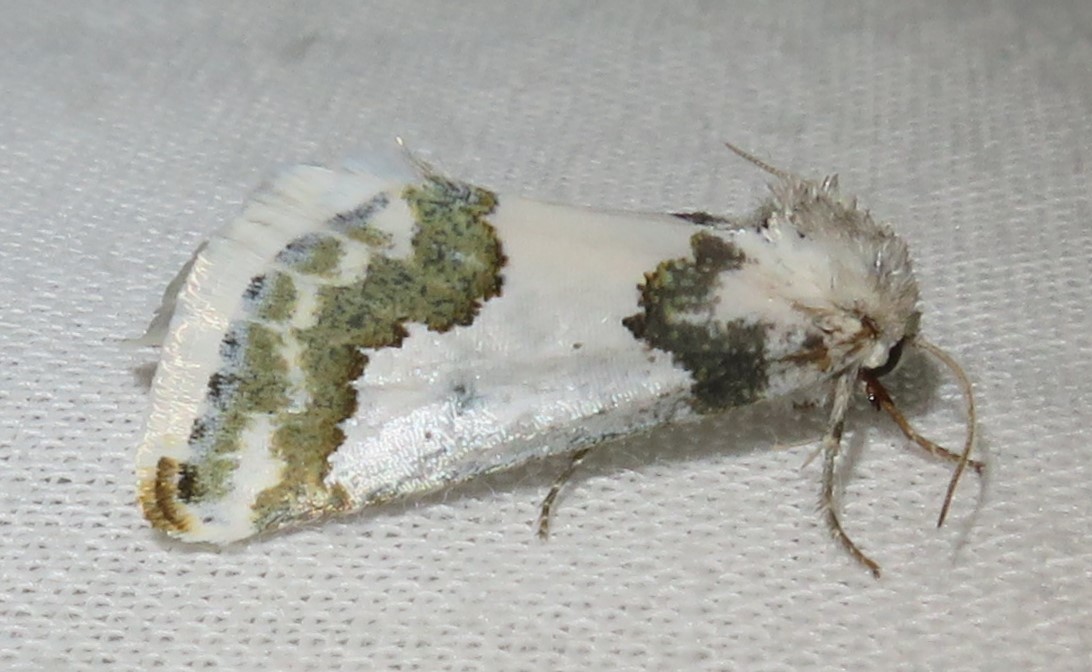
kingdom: Animalia
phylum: Arthropoda
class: Insecta
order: Lepidoptera
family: Noctuidae
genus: Schinia
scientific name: Schinia cumatilis
